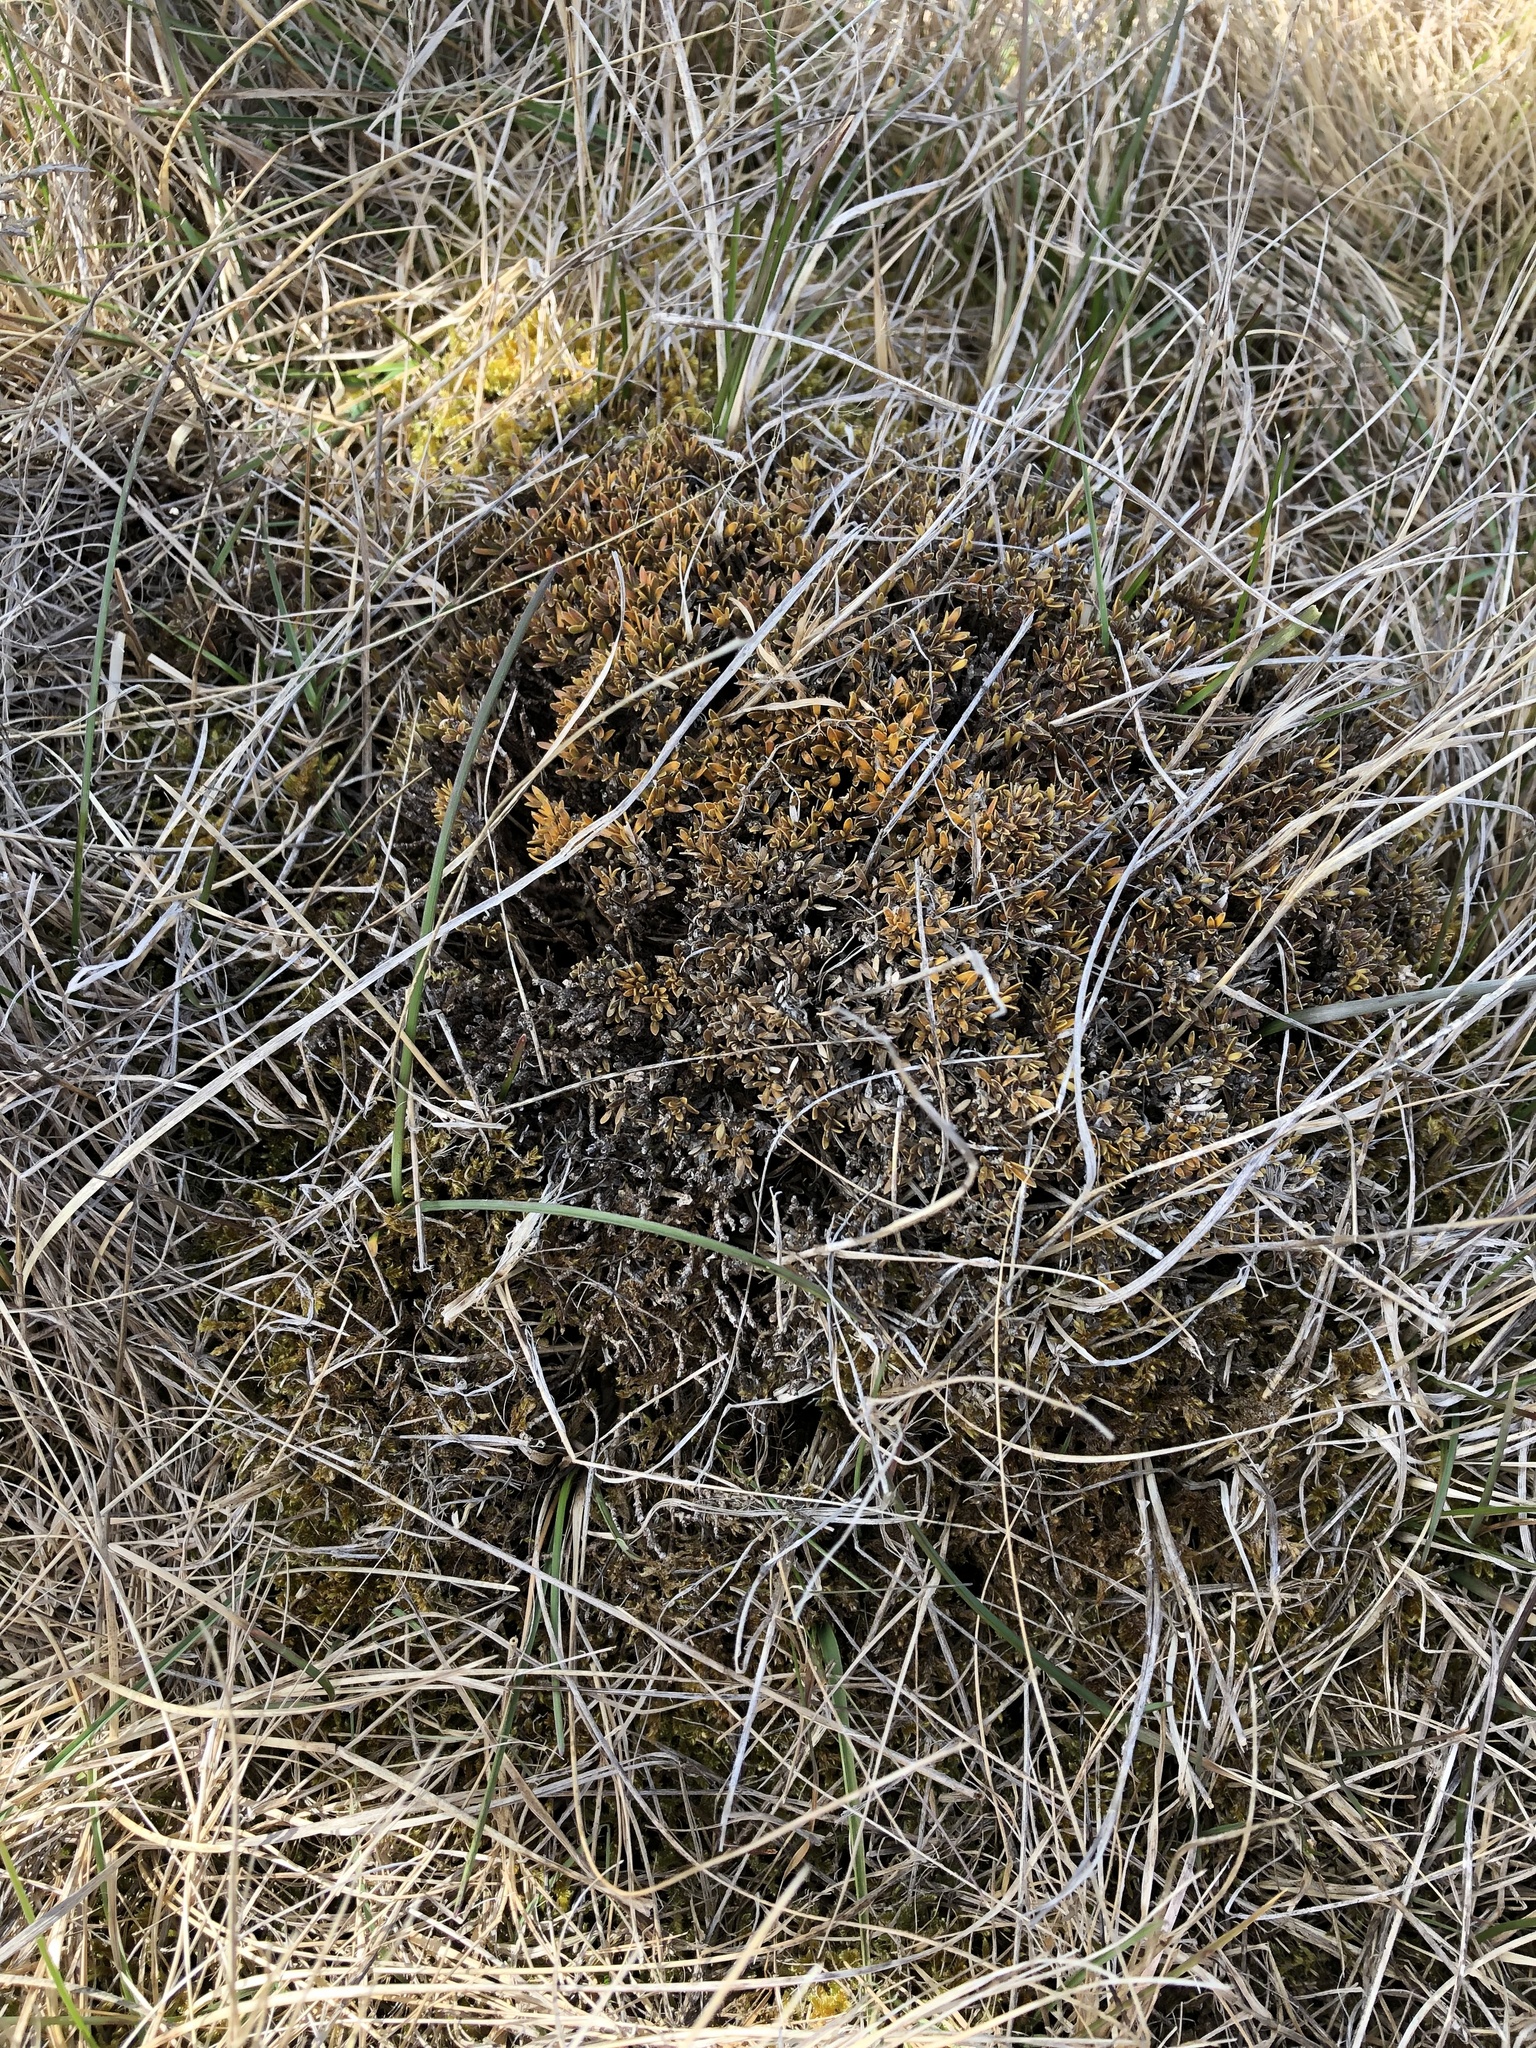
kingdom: Plantae
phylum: Tracheophyta
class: Magnoliopsida
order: Gentianales
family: Rubiaceae
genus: Coprosma
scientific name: Coprosma petriei
